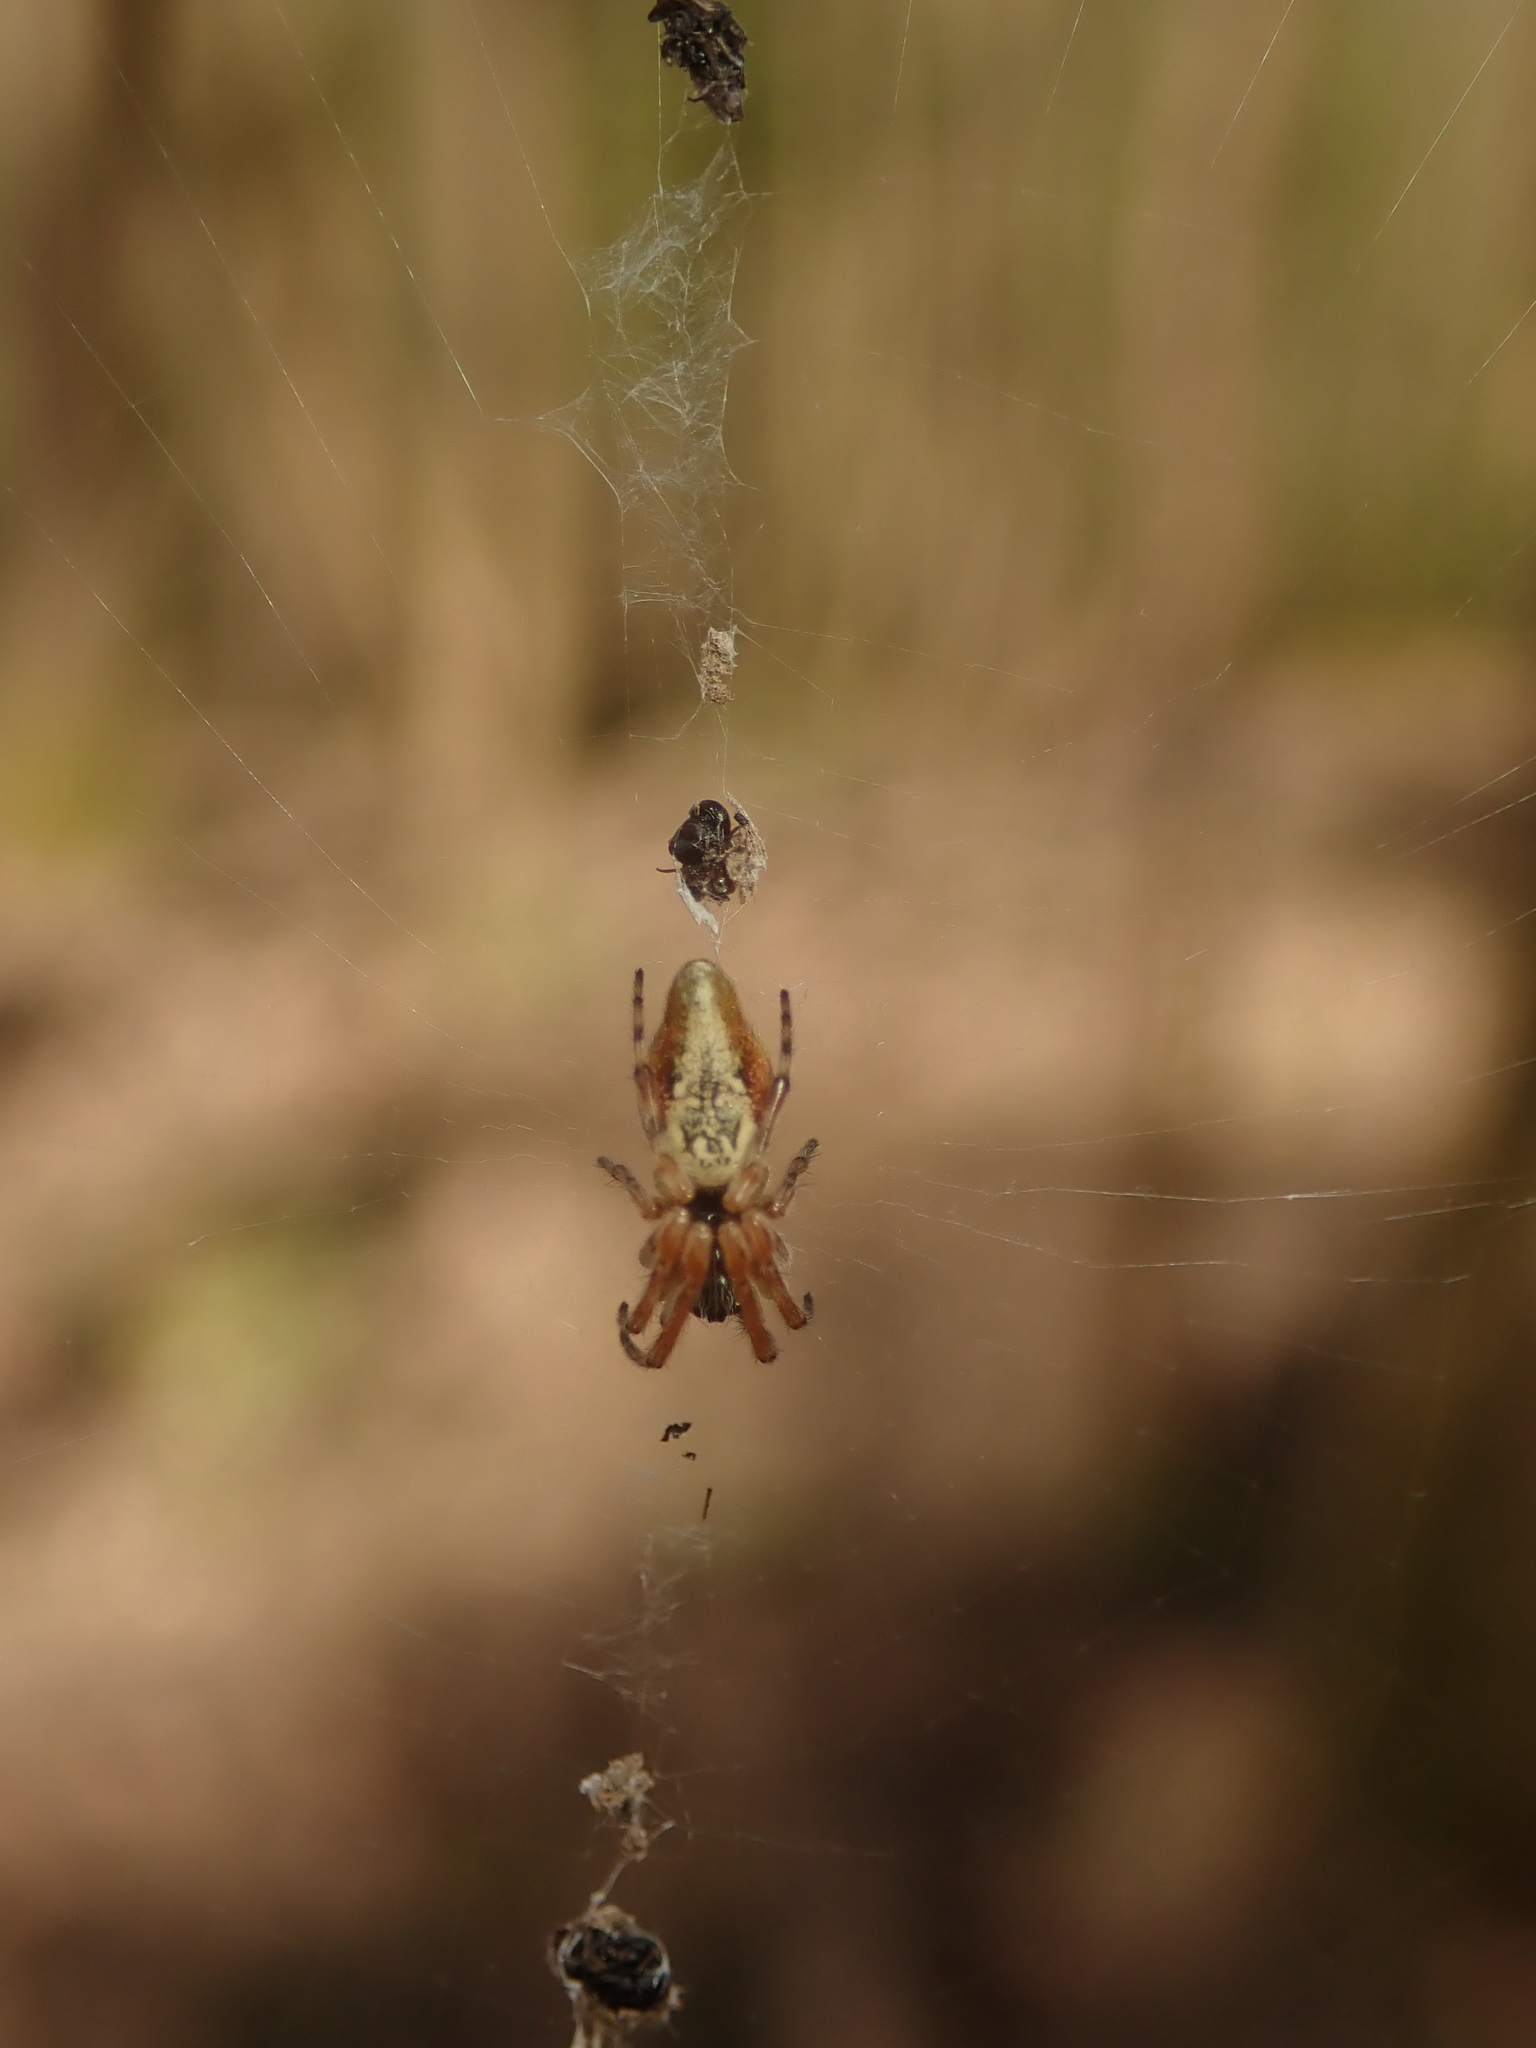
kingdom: Animalia
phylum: Arthropoda
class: Arachnida
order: Araneae
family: Araneidae
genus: Cyclosa
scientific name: Cyclosa conica
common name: Conical trashline orbweaver
